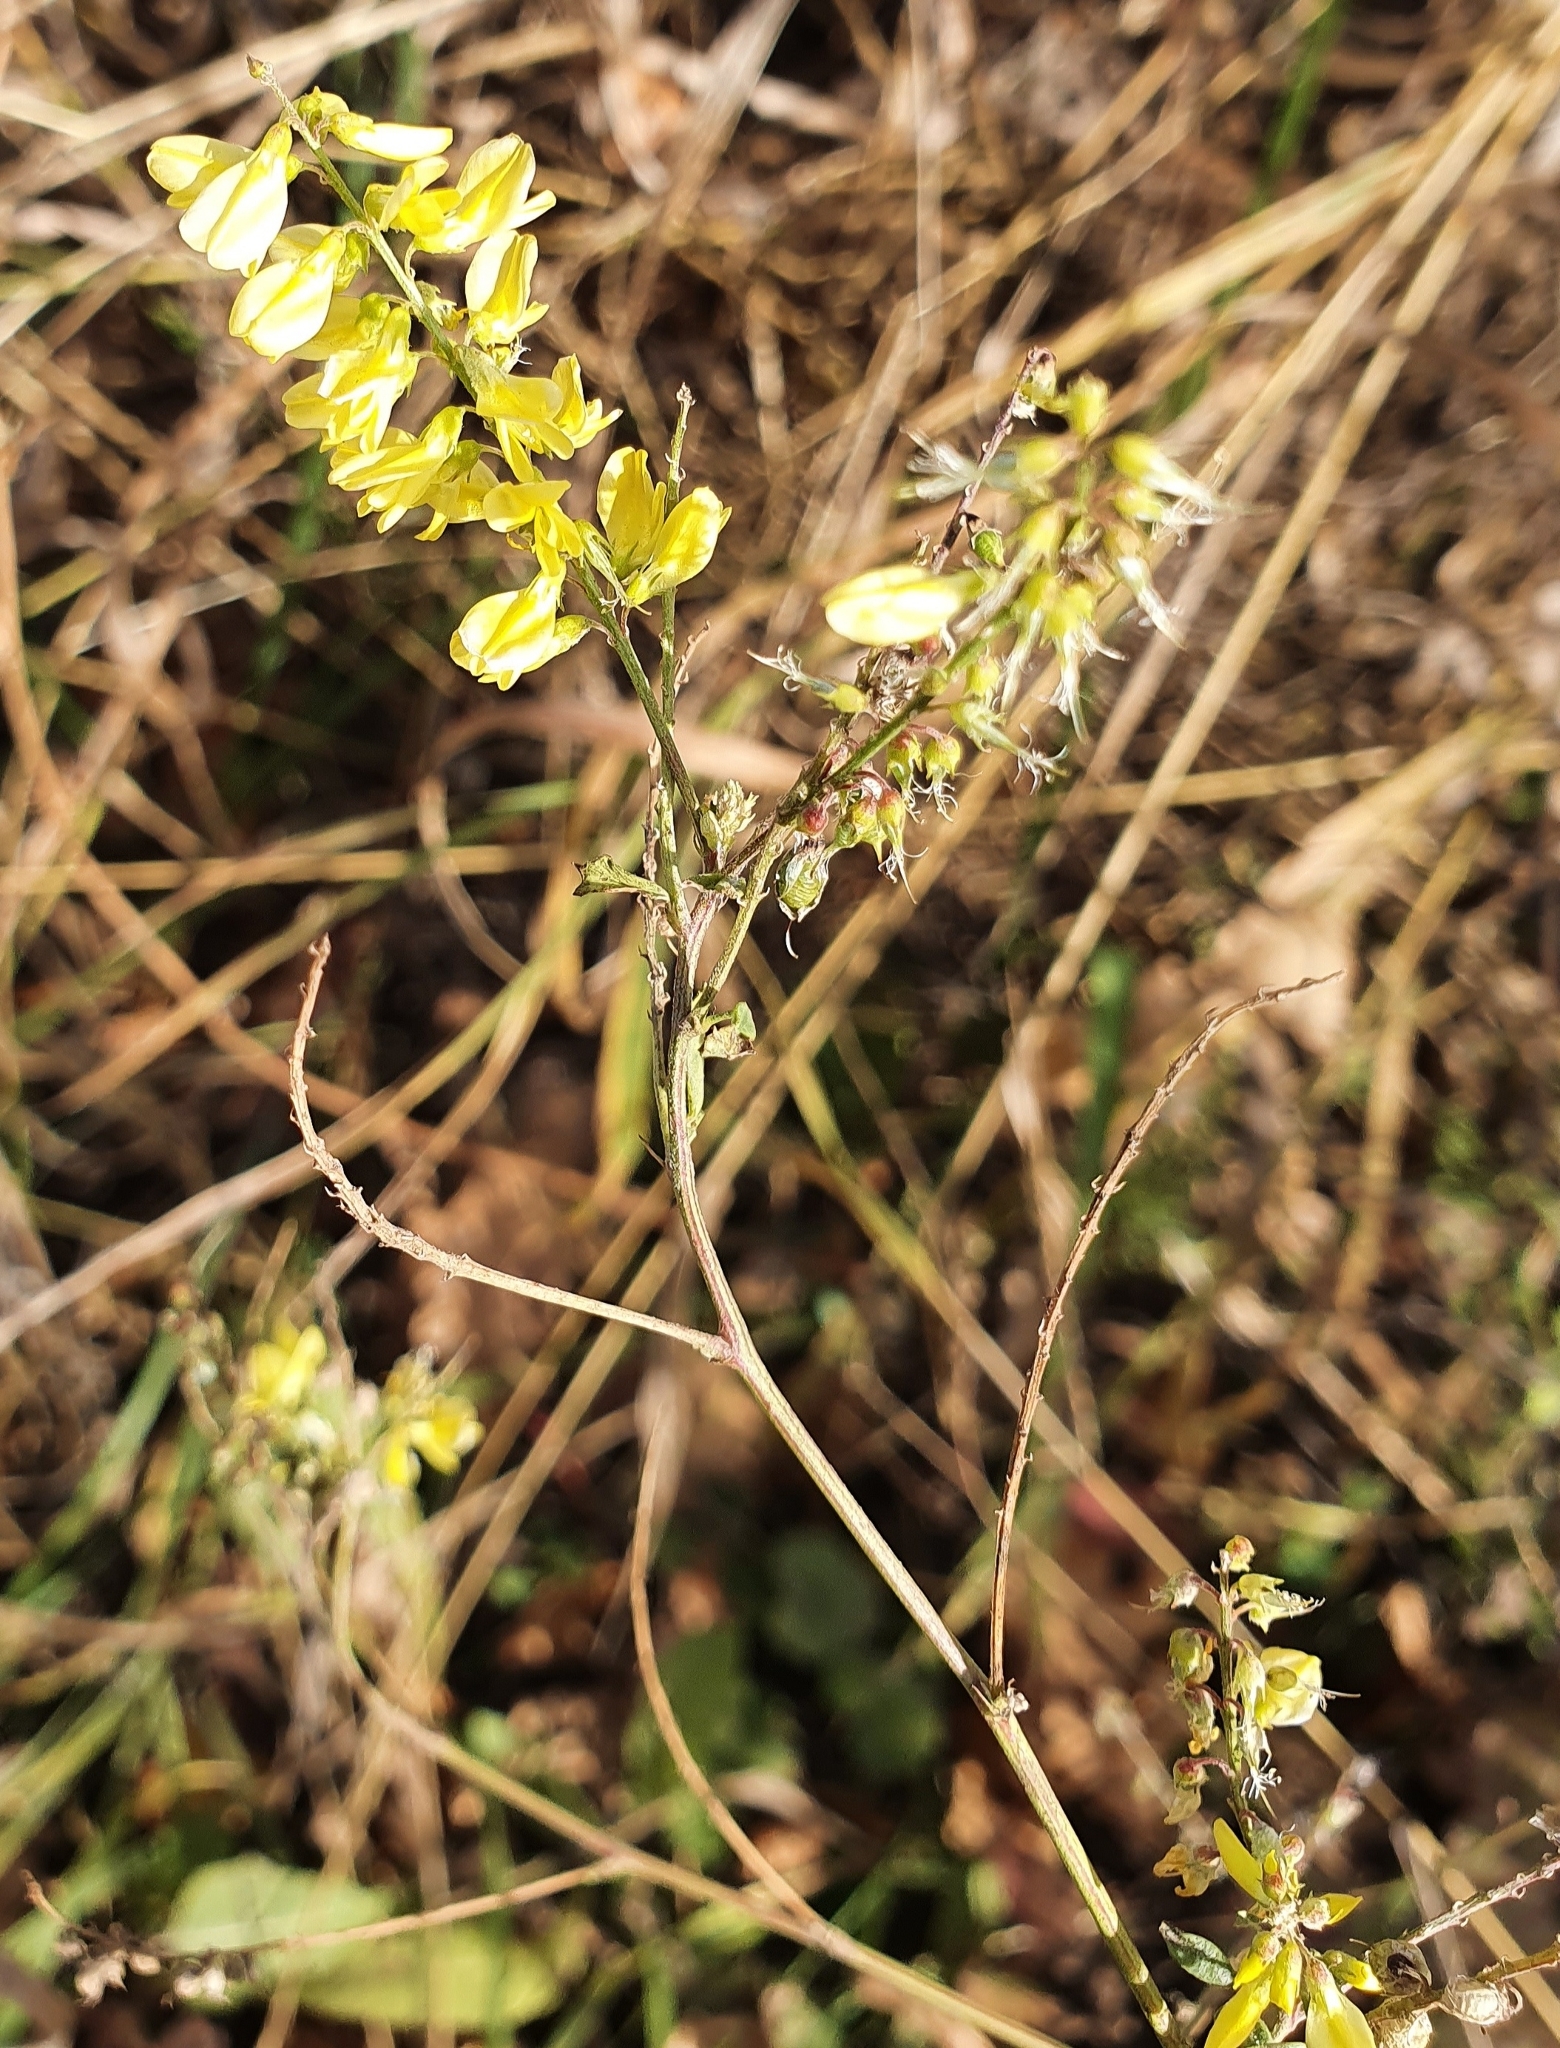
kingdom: Plantae
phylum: Tracheophyta
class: Magnoliopsida
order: Fabales
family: Fabaceae
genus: Melilotus
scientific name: Melilotus officinalis
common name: Sweetclover
